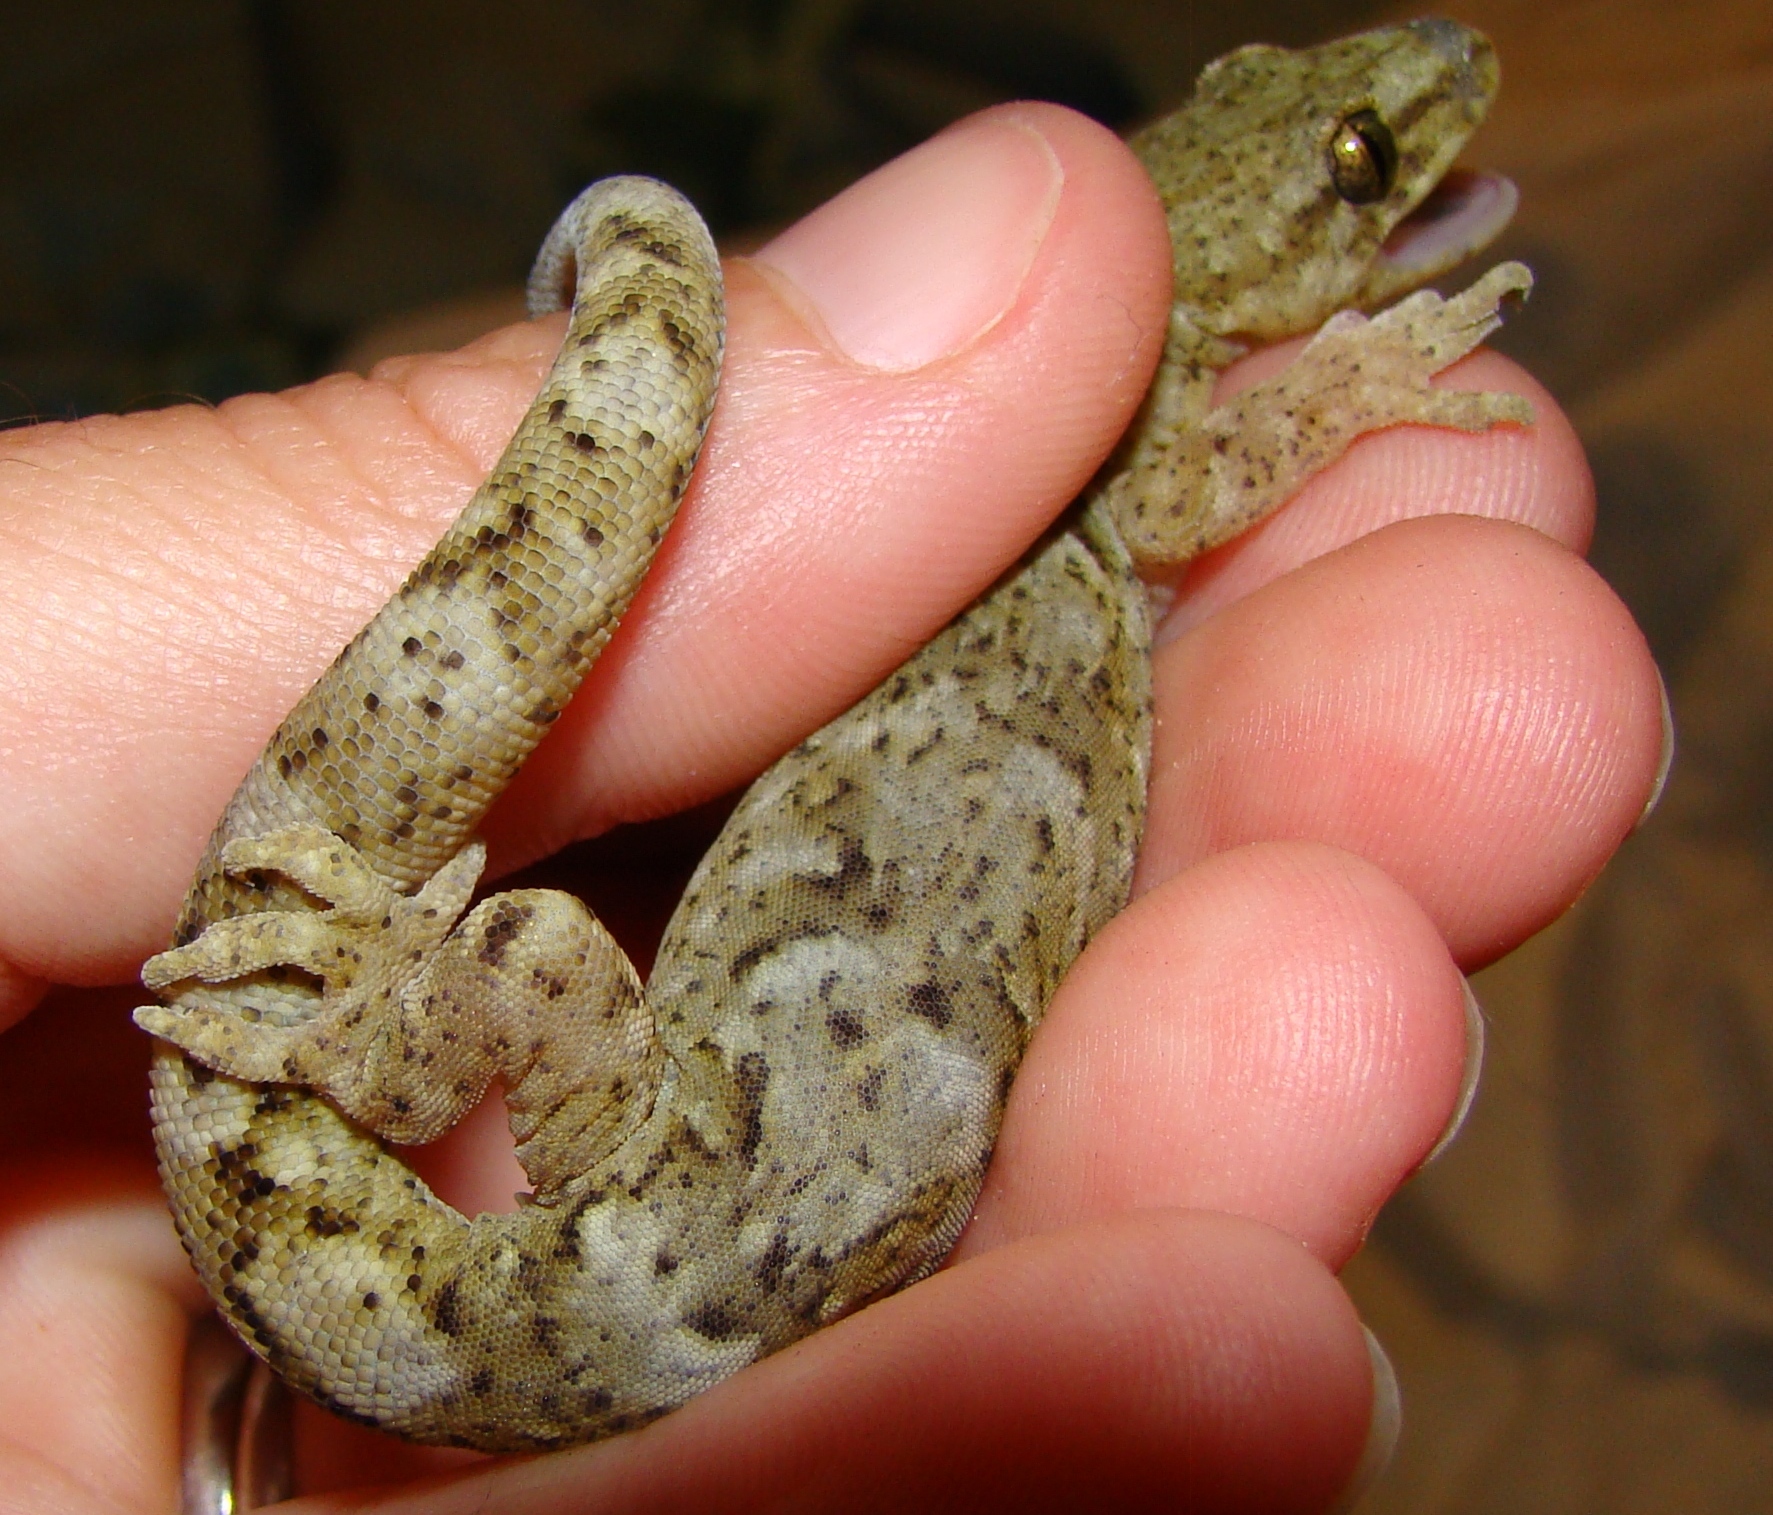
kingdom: Animalia
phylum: Chordata
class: Squamata
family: Diplodactylidae
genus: Woodworthia
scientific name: Woodworthia maculata
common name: Raukawa gecko
